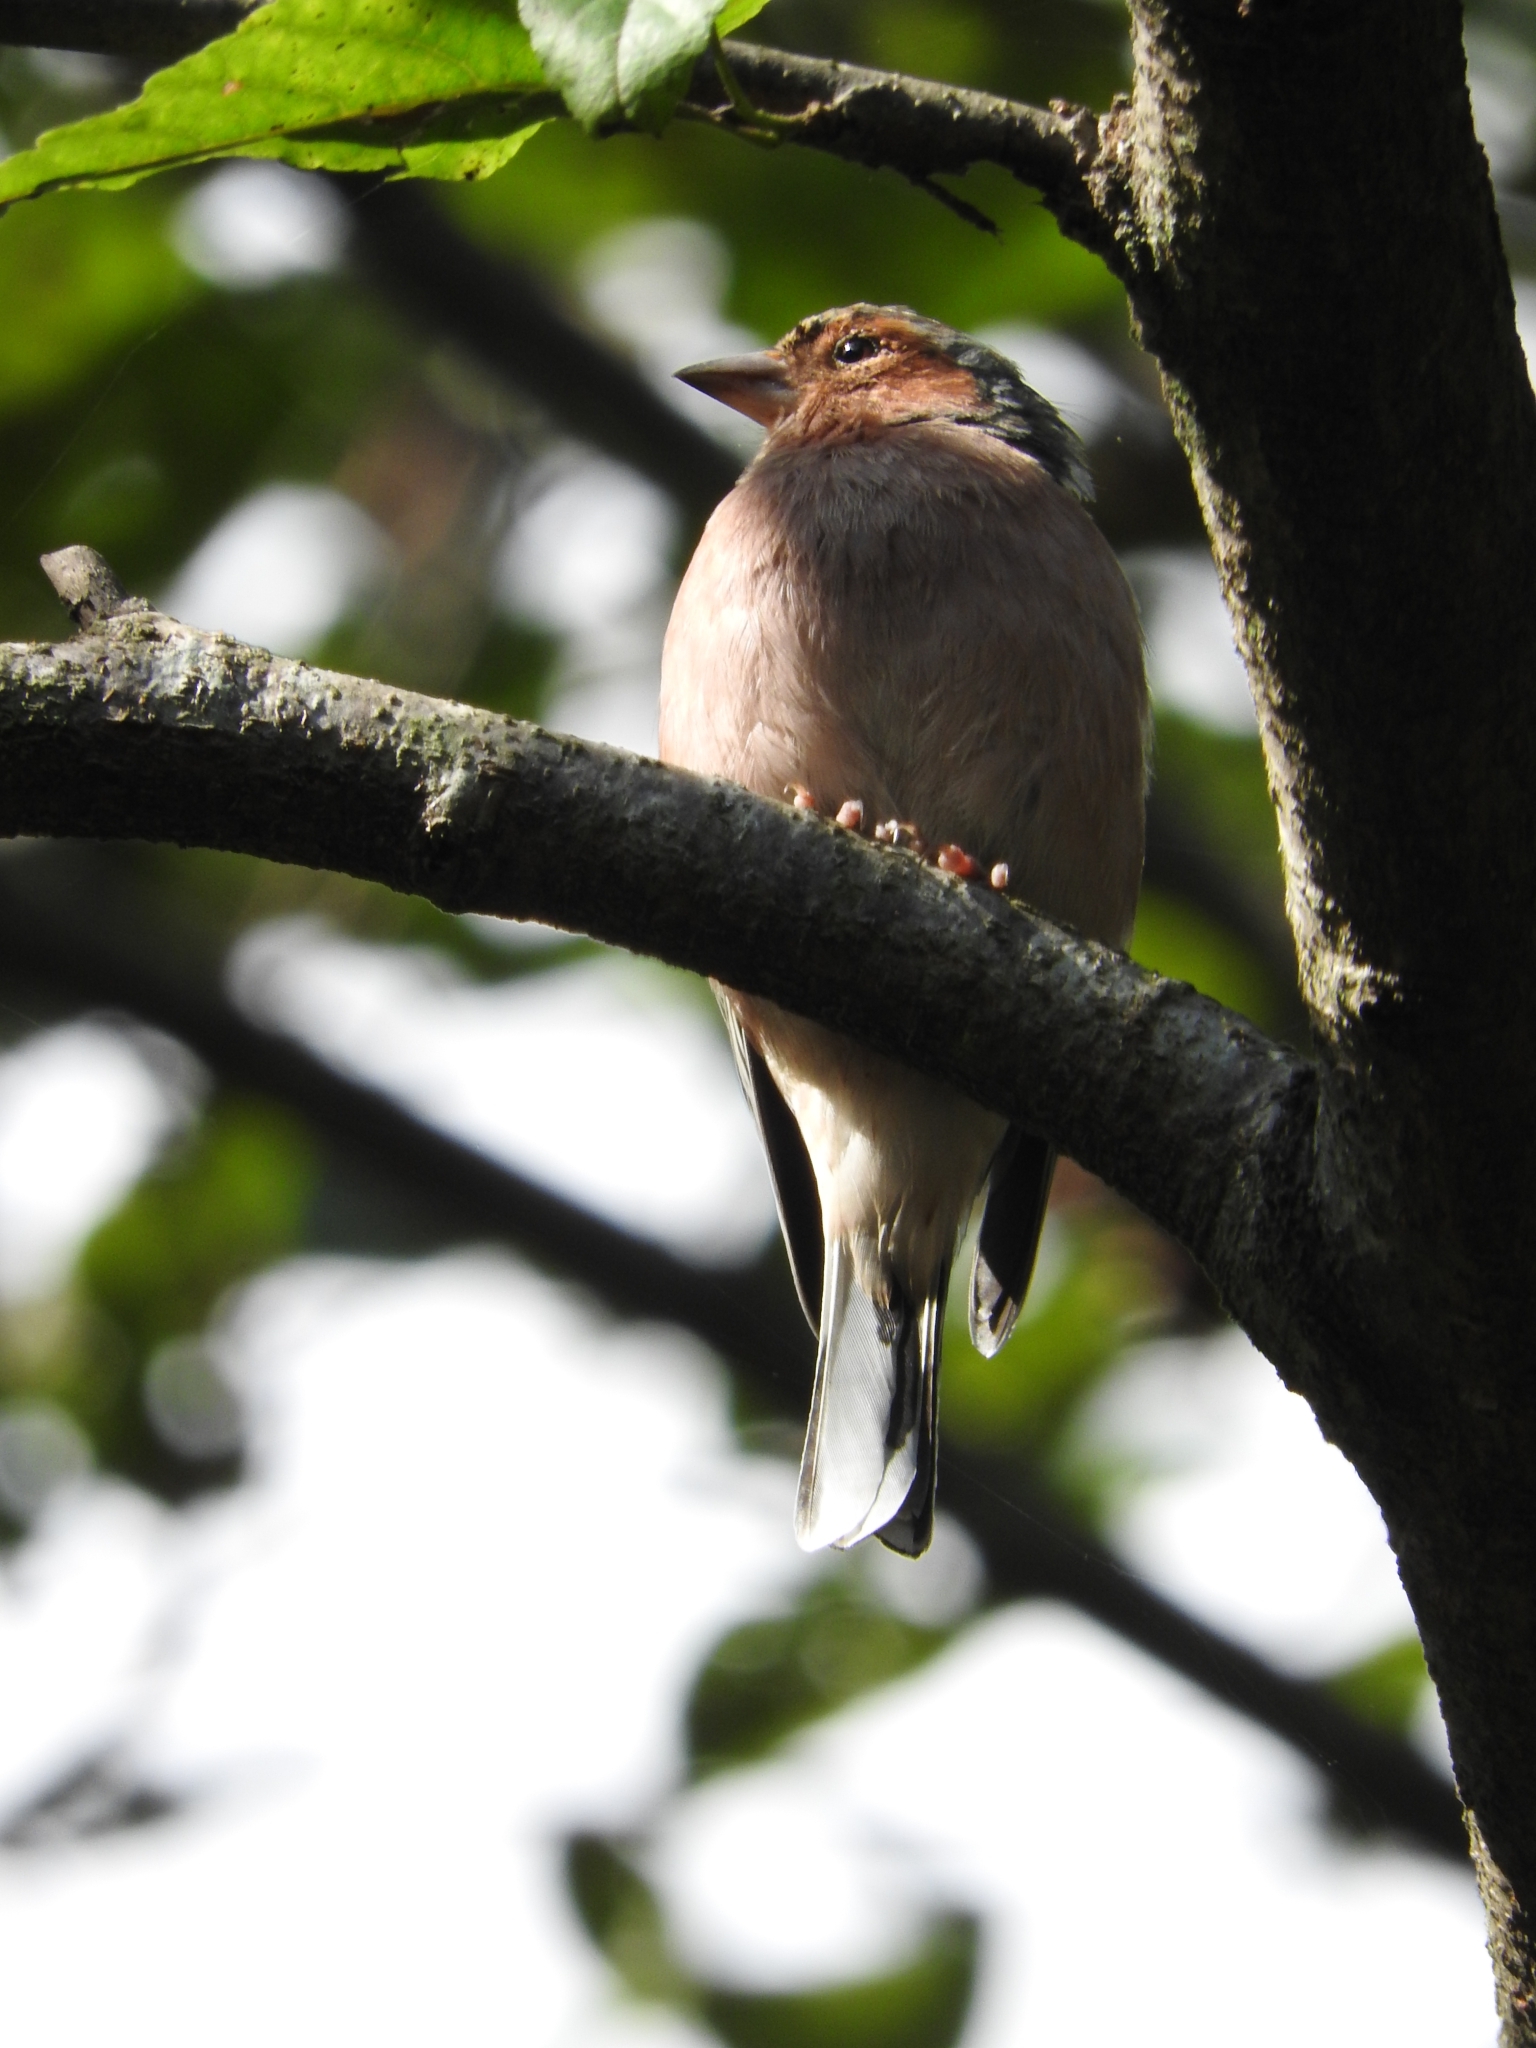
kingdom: Animalia
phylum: Chordata
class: Aves
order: Passeriformes
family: Fringillidae
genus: Fringilla
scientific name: Fringilla coelebs
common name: Common chaffinch
